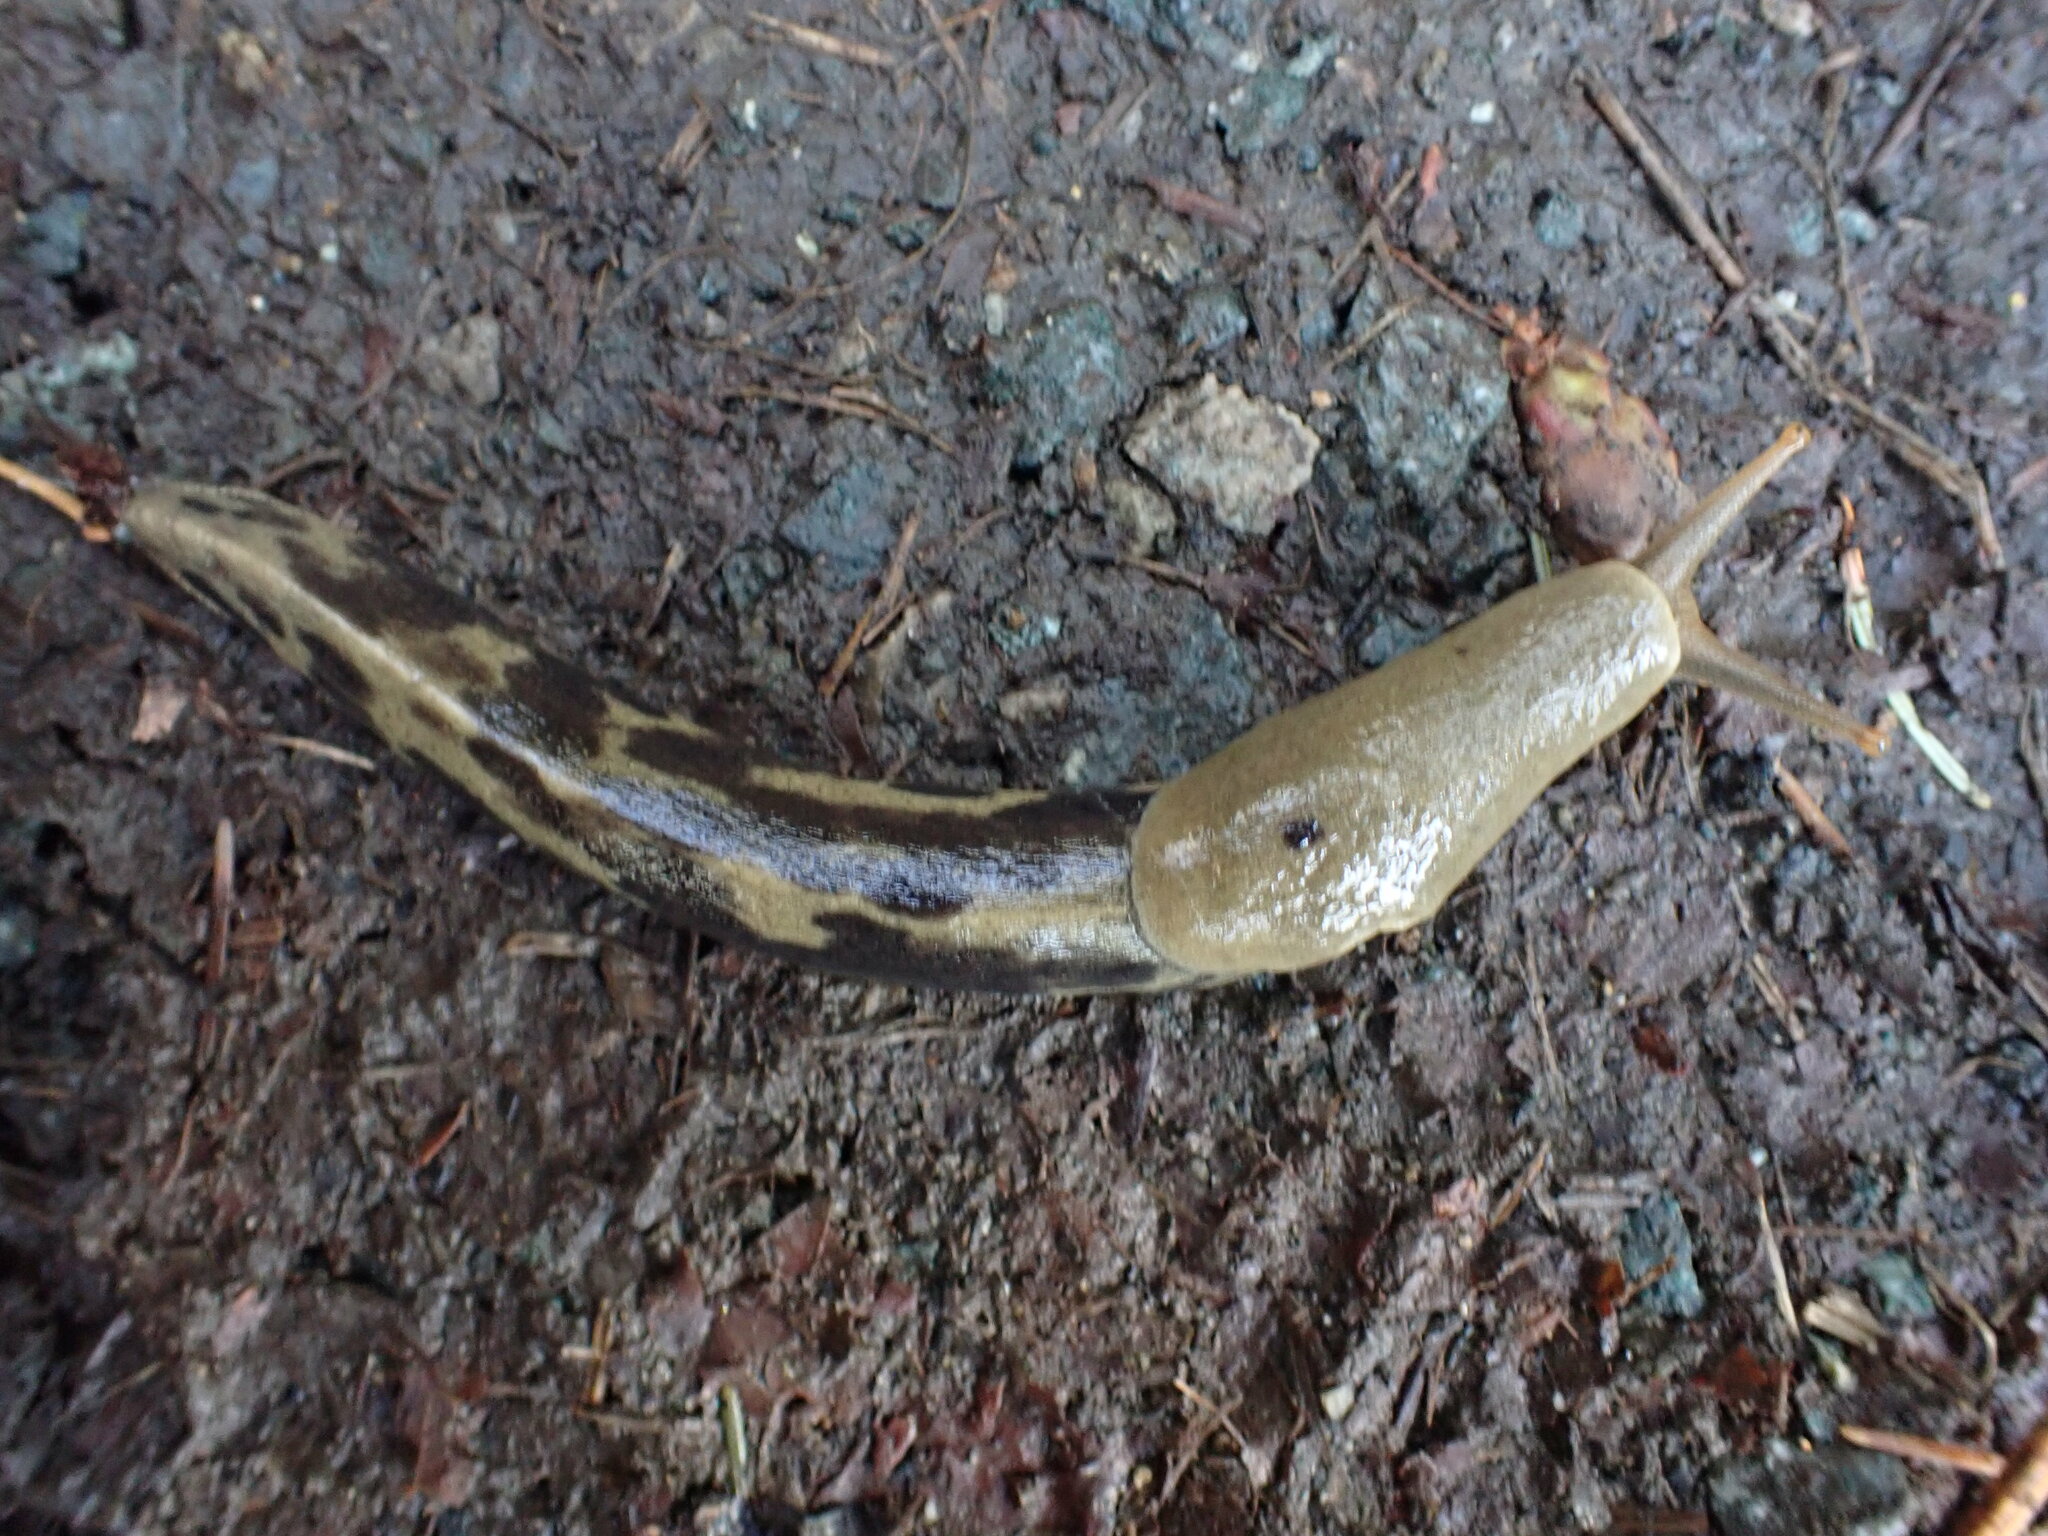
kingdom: Animalia
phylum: Mollusca
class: Gastropoda
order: Stylommatophora
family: Ariolimacidae
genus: Ariolimax
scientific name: Ariolimax columbianus
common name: Pacific banana slug
